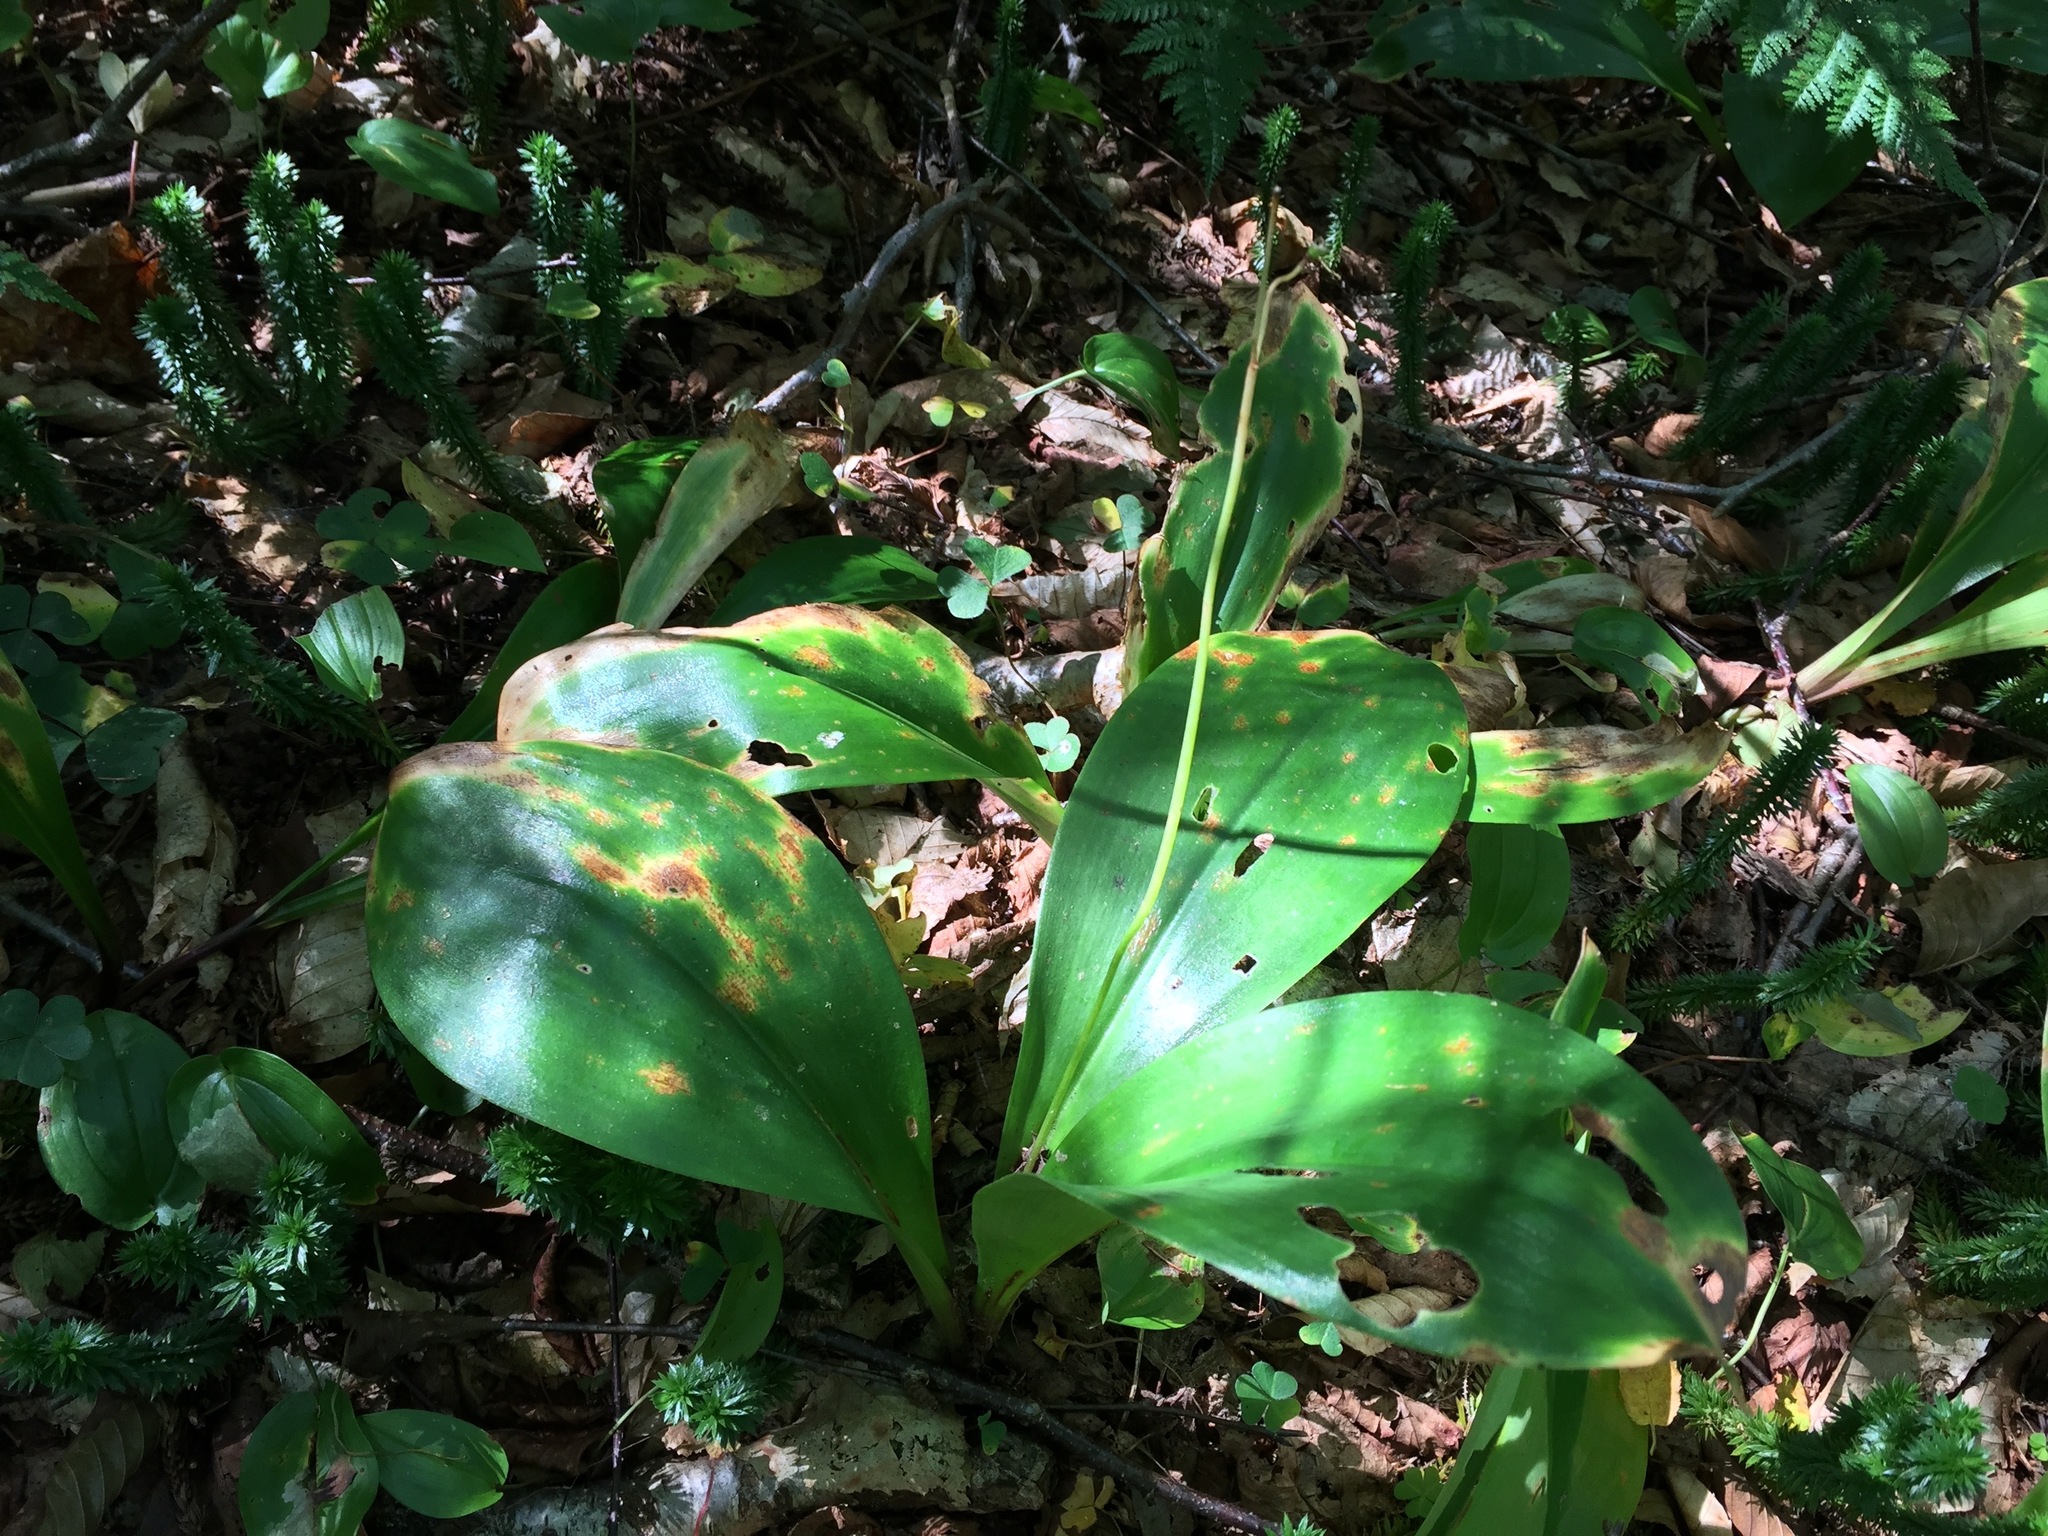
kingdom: Plantae
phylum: Tracheophyta
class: Liliopsida
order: Liliales
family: Liliaceae
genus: Clintonia
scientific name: Clintonia borealis
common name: Yellow clintonia
